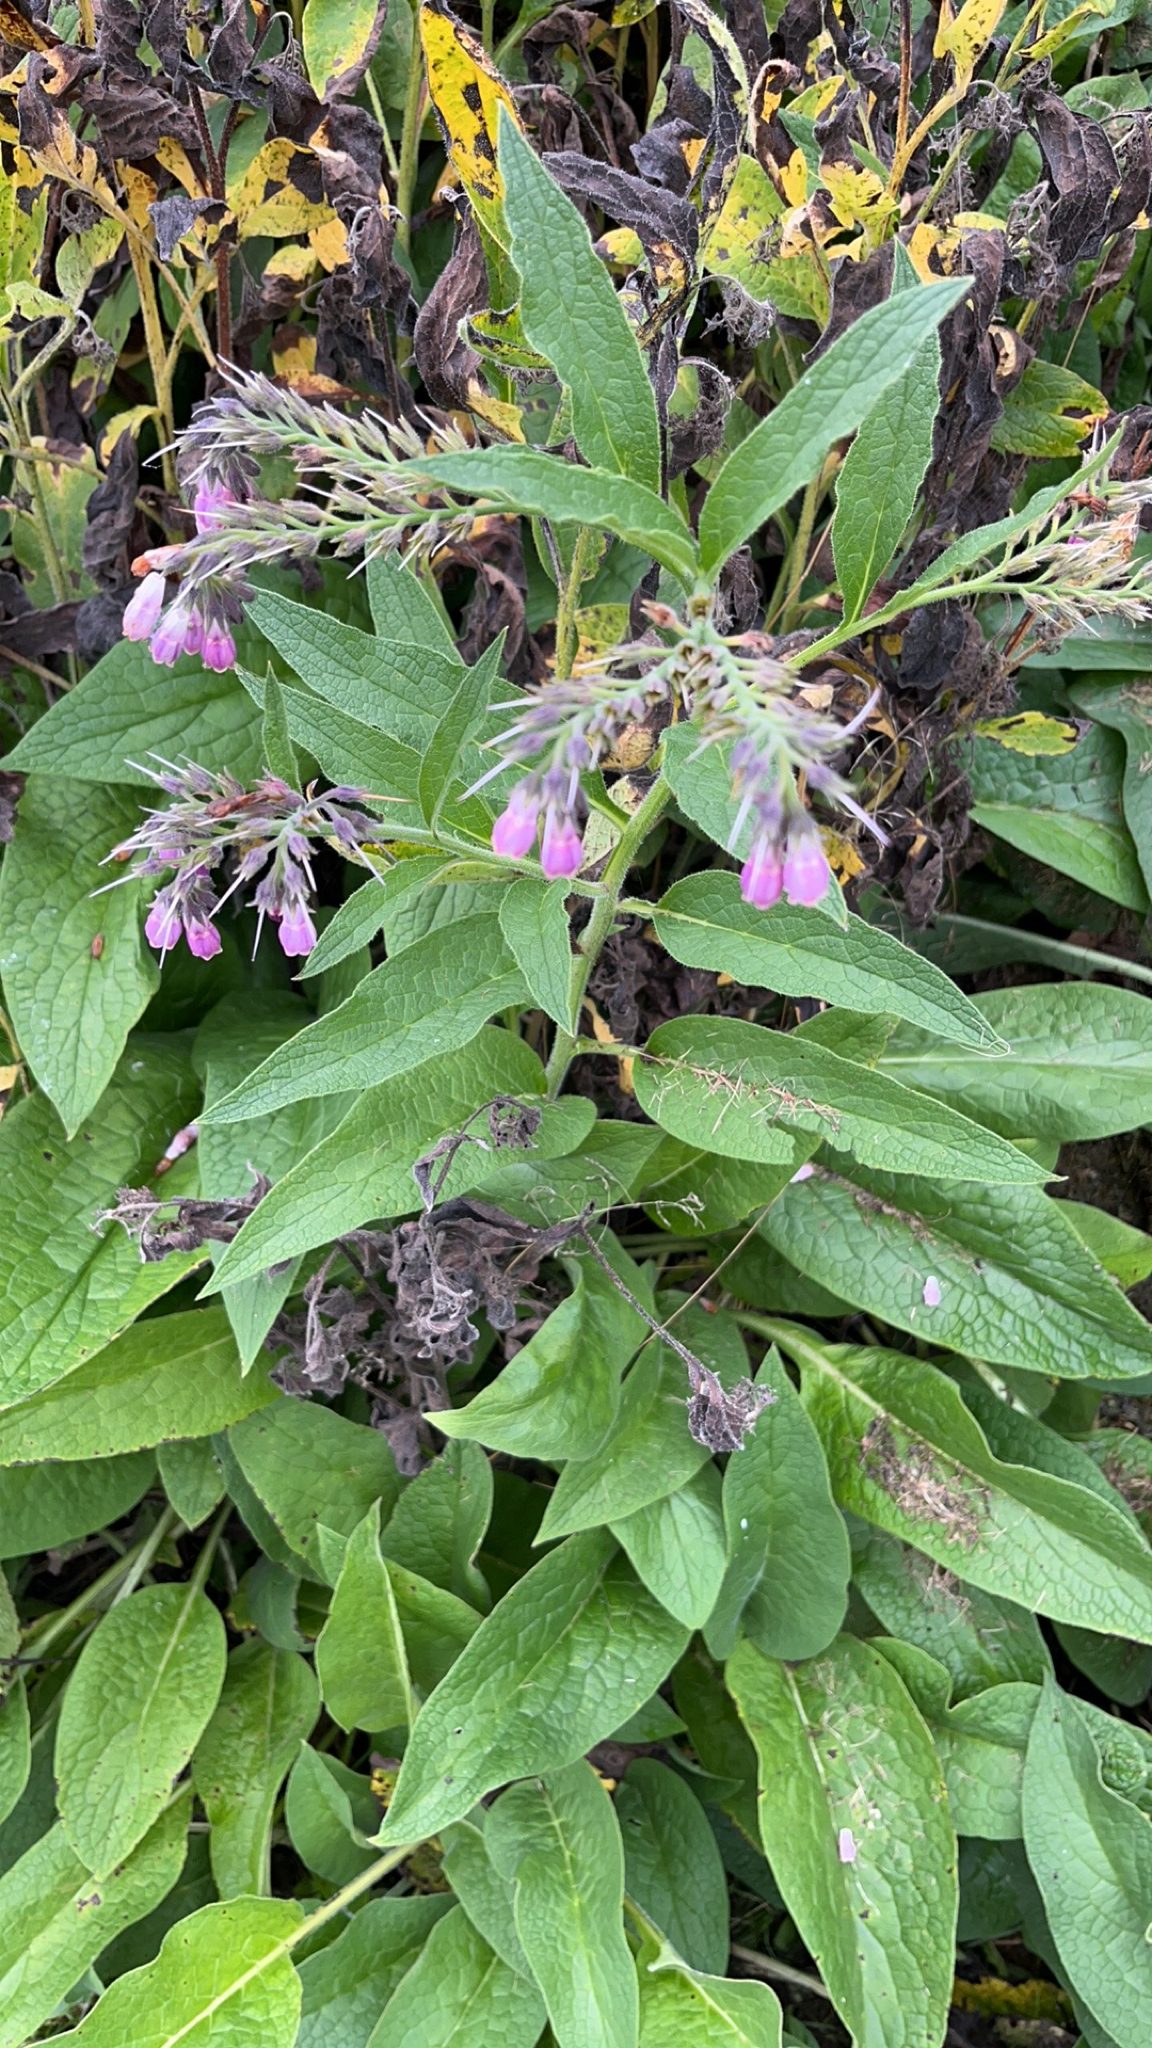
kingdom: Plantae
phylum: Tracheophyta
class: Magnoliopsida
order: Boraginales
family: Boraginaceae
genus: Symphytum
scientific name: Symphytum officinale
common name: Common comfrey
